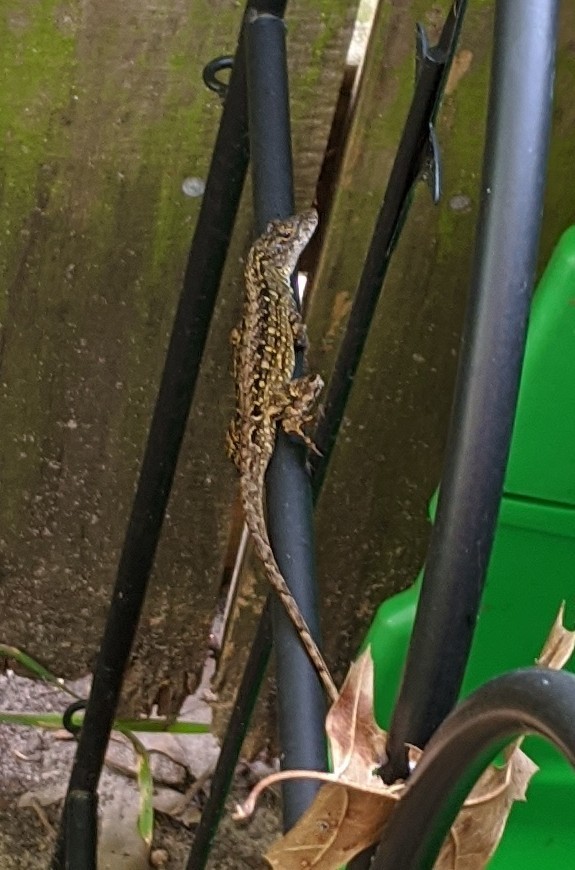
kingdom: Animalia
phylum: Chordata
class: Squamata
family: Dactyloidae
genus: Anolis
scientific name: Anolis sagrei
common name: Brown anole
